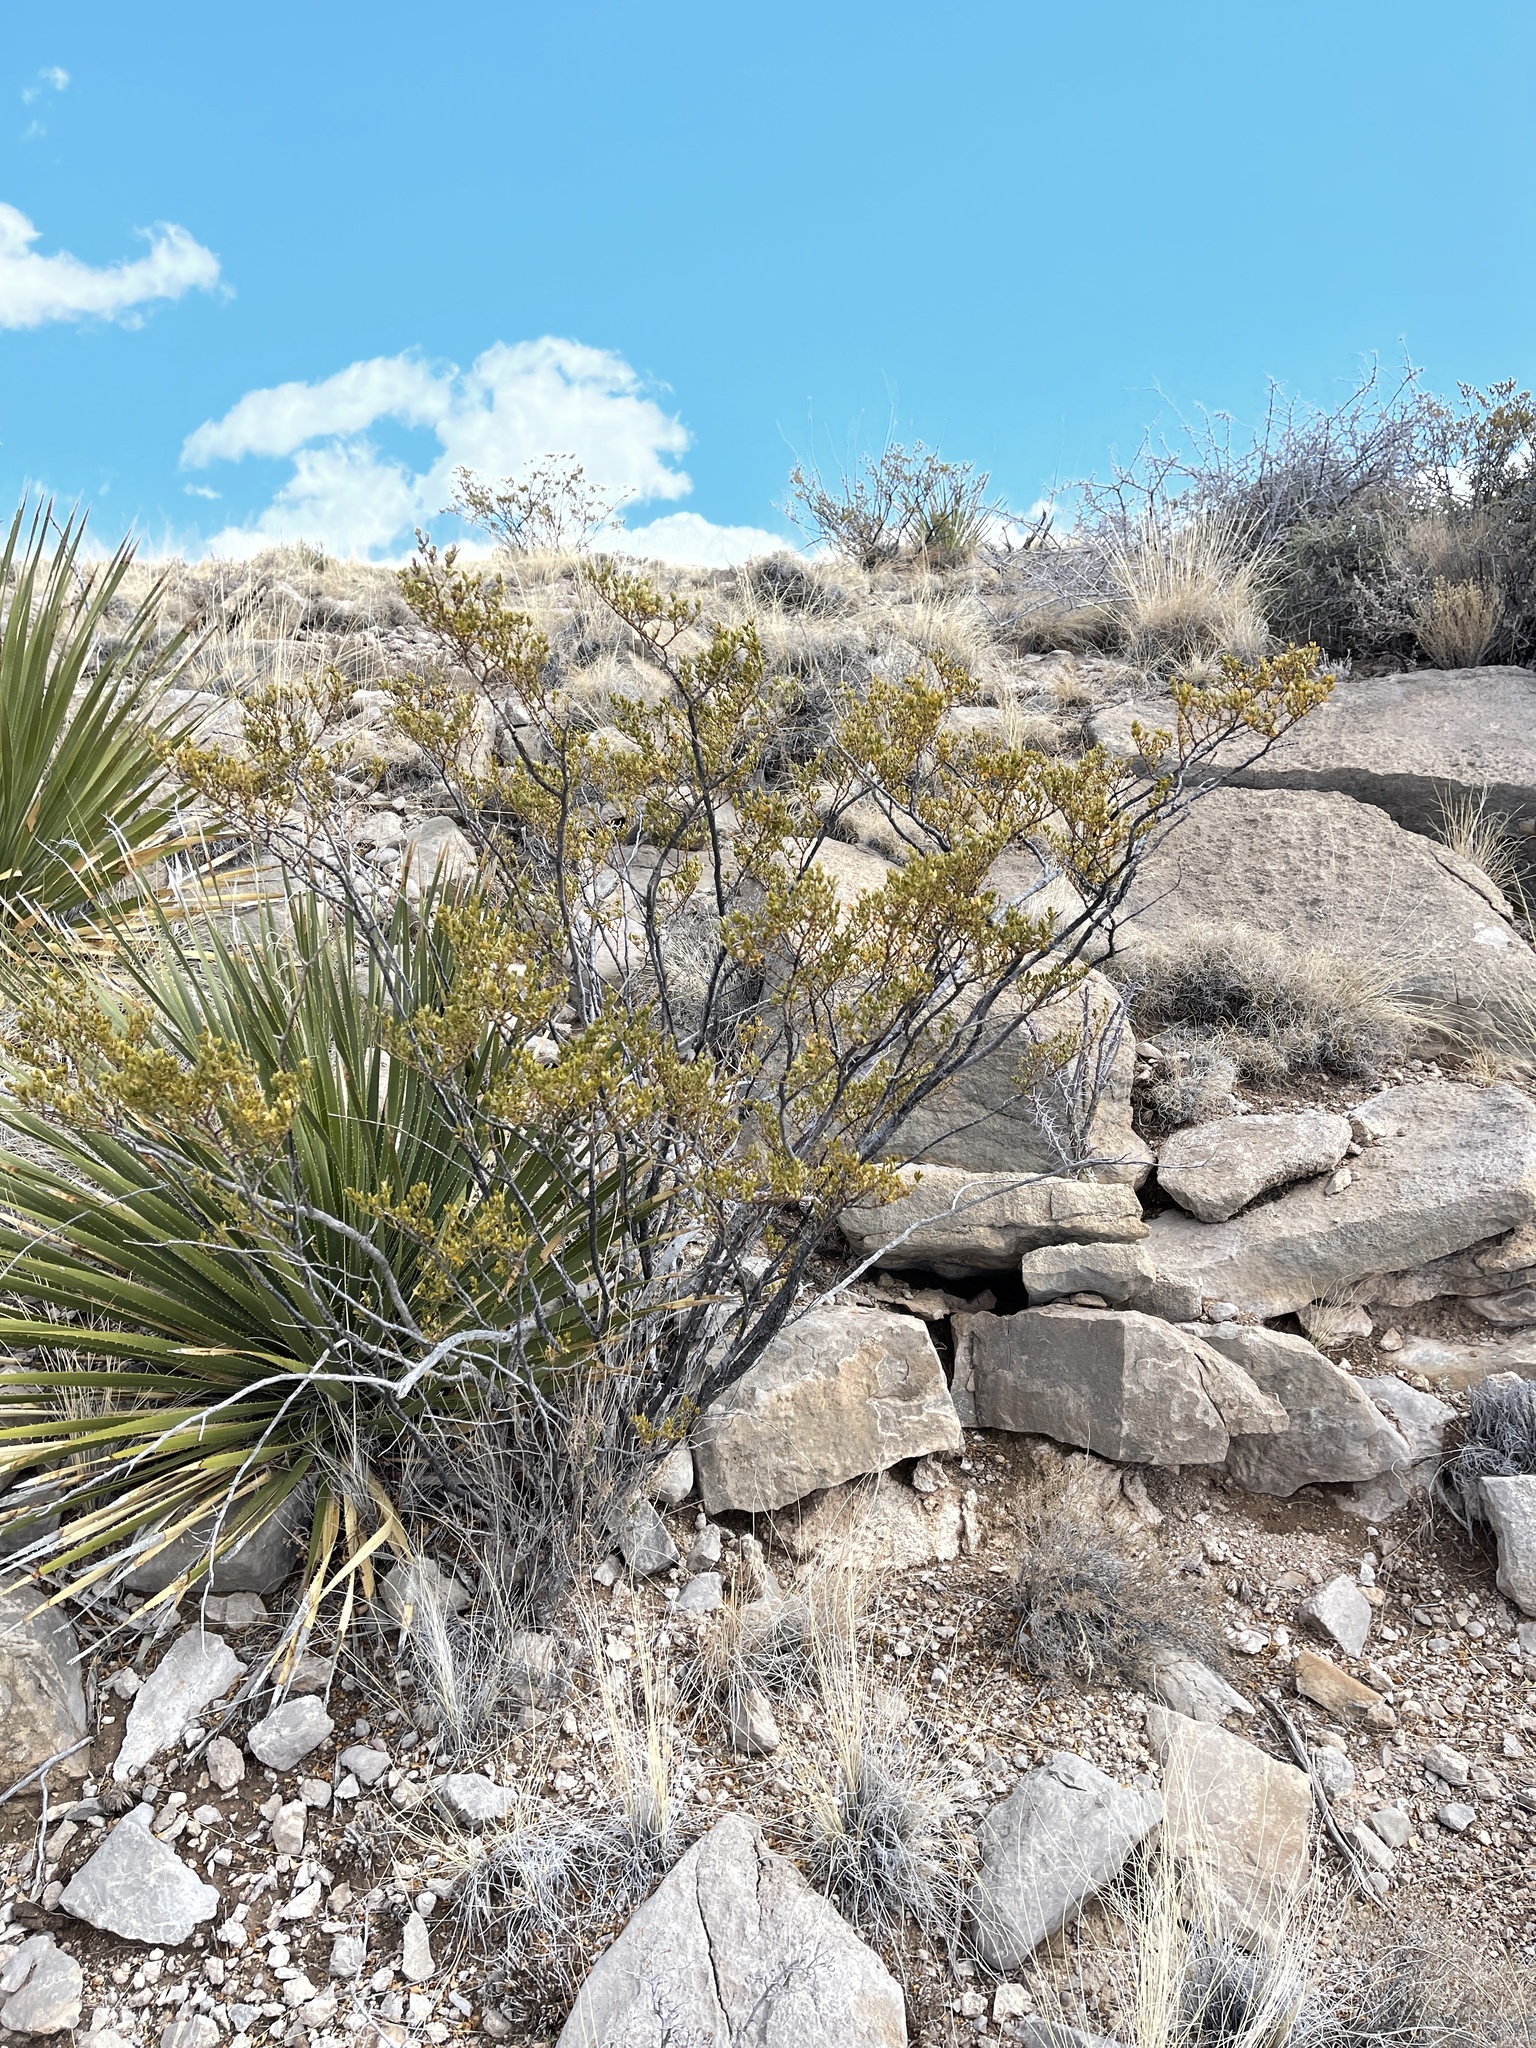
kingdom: Plantae
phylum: Tracheophyta
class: Magnoliopsida
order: Zygophyllales
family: Zygophyllaceae
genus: Larrea
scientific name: Larrea tridentata
